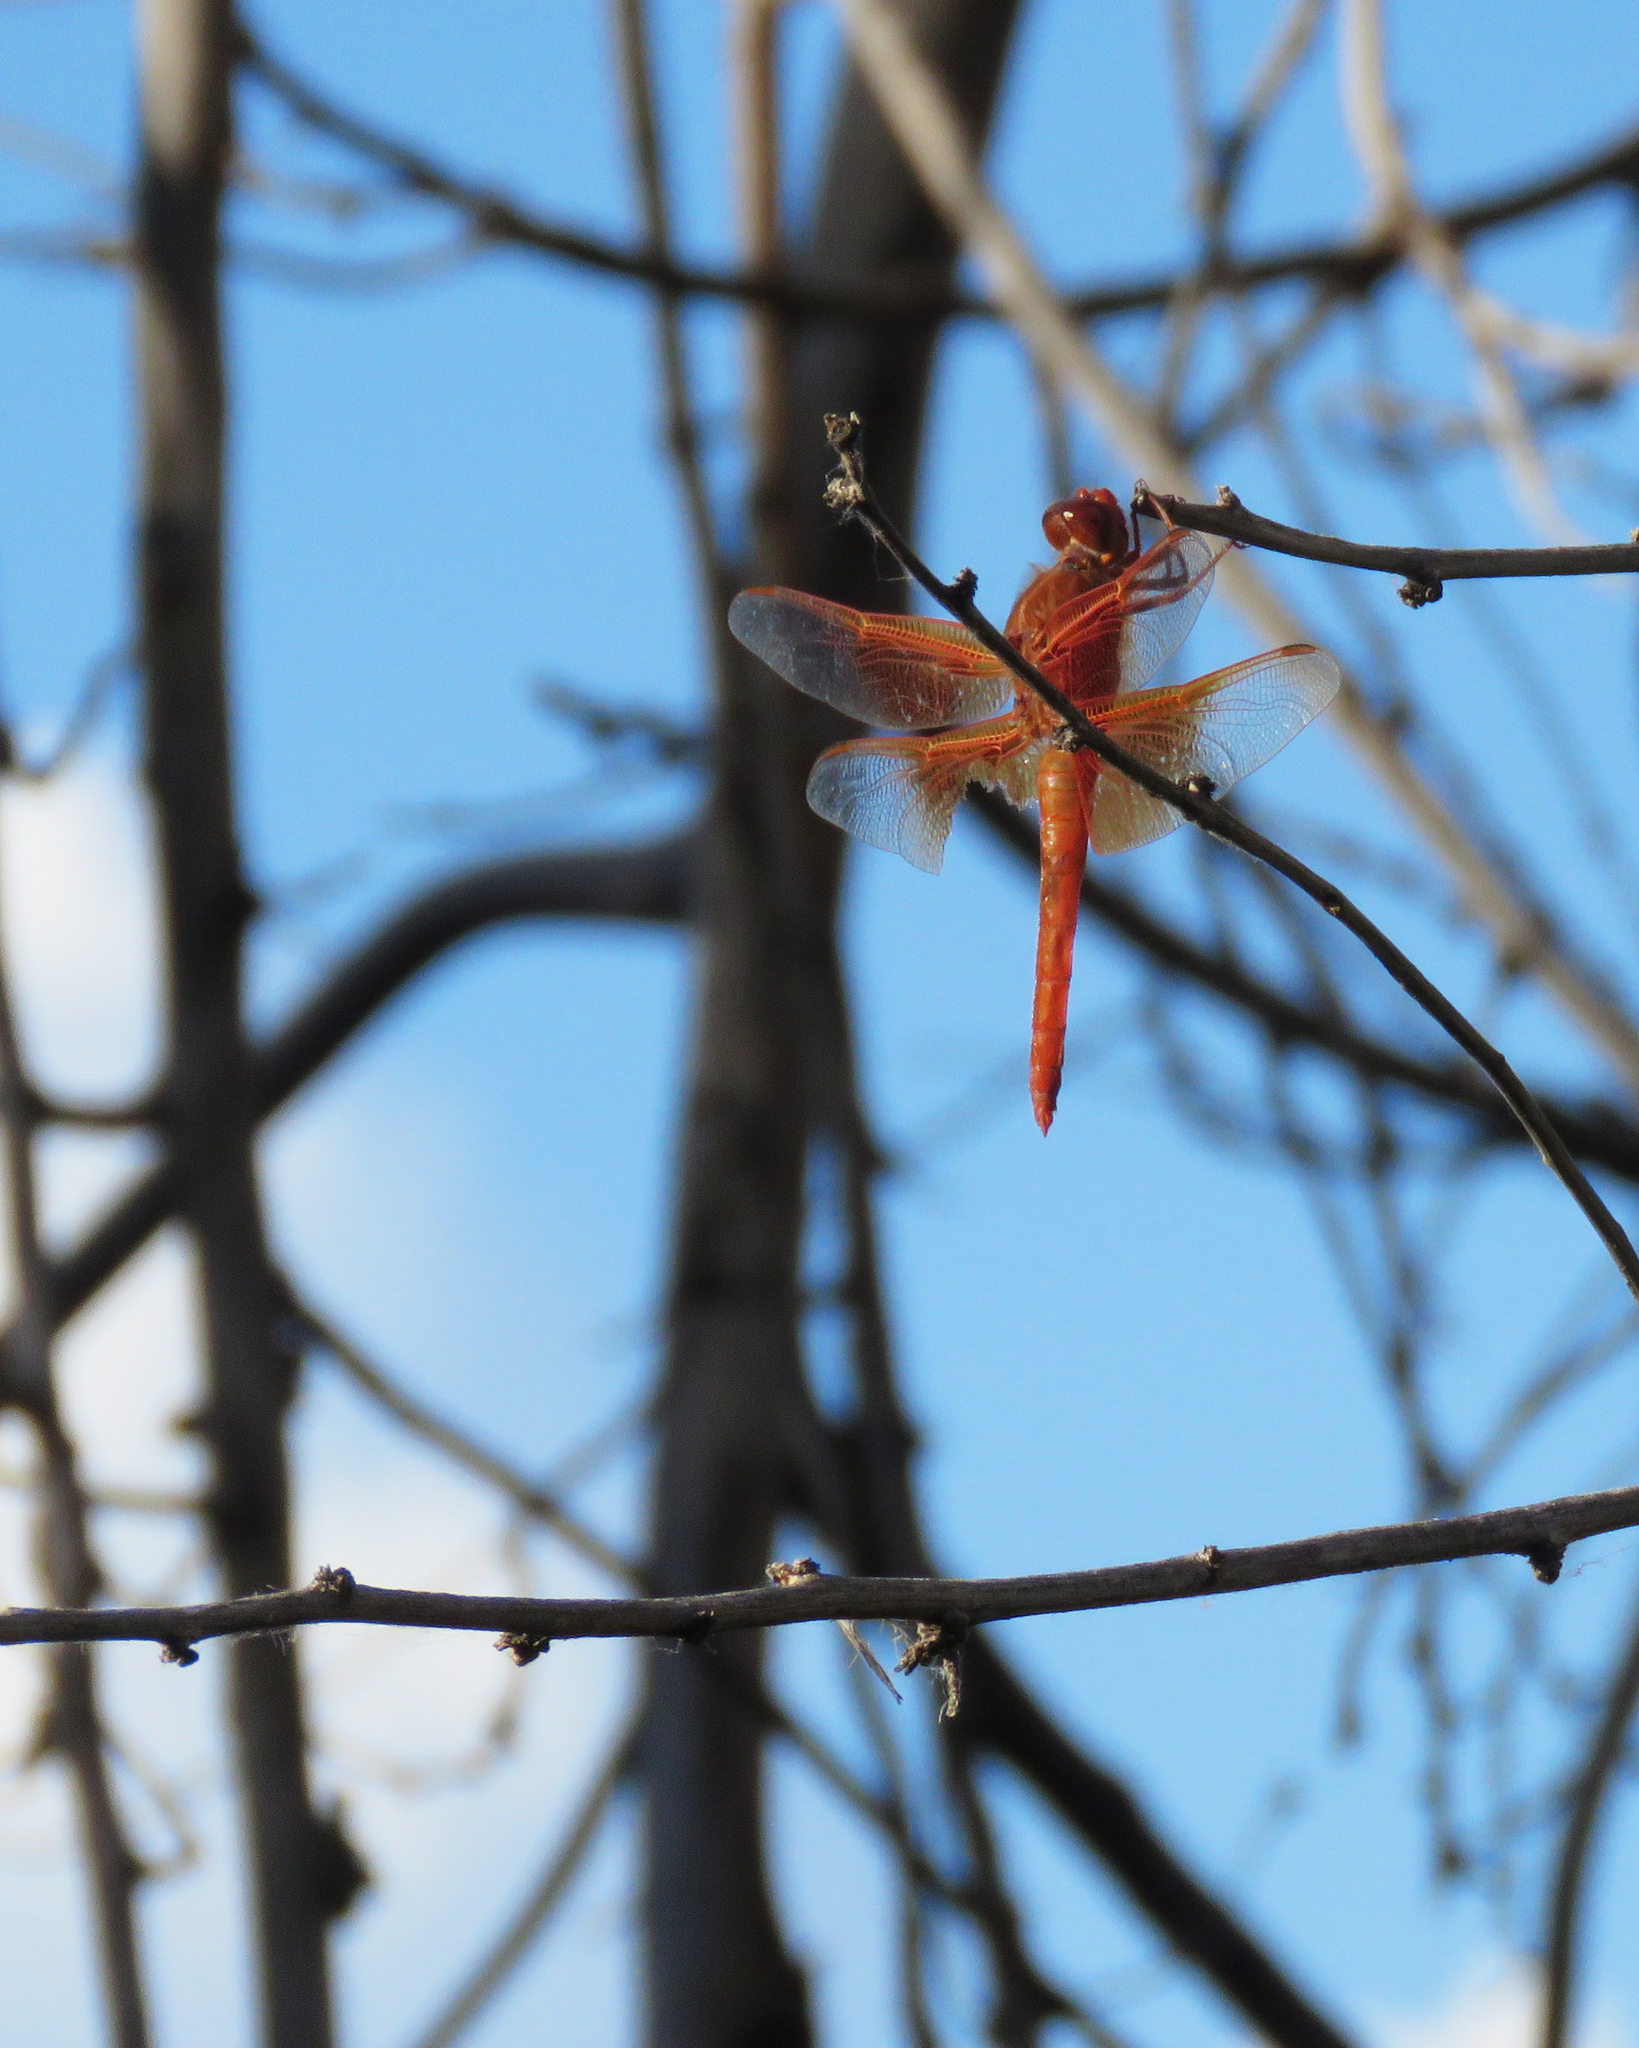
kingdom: Animalia
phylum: Arthropoda
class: Insecta
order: Odonata
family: Libellulidae
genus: Libellula
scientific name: Libellula saturata
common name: Flame skimmer
